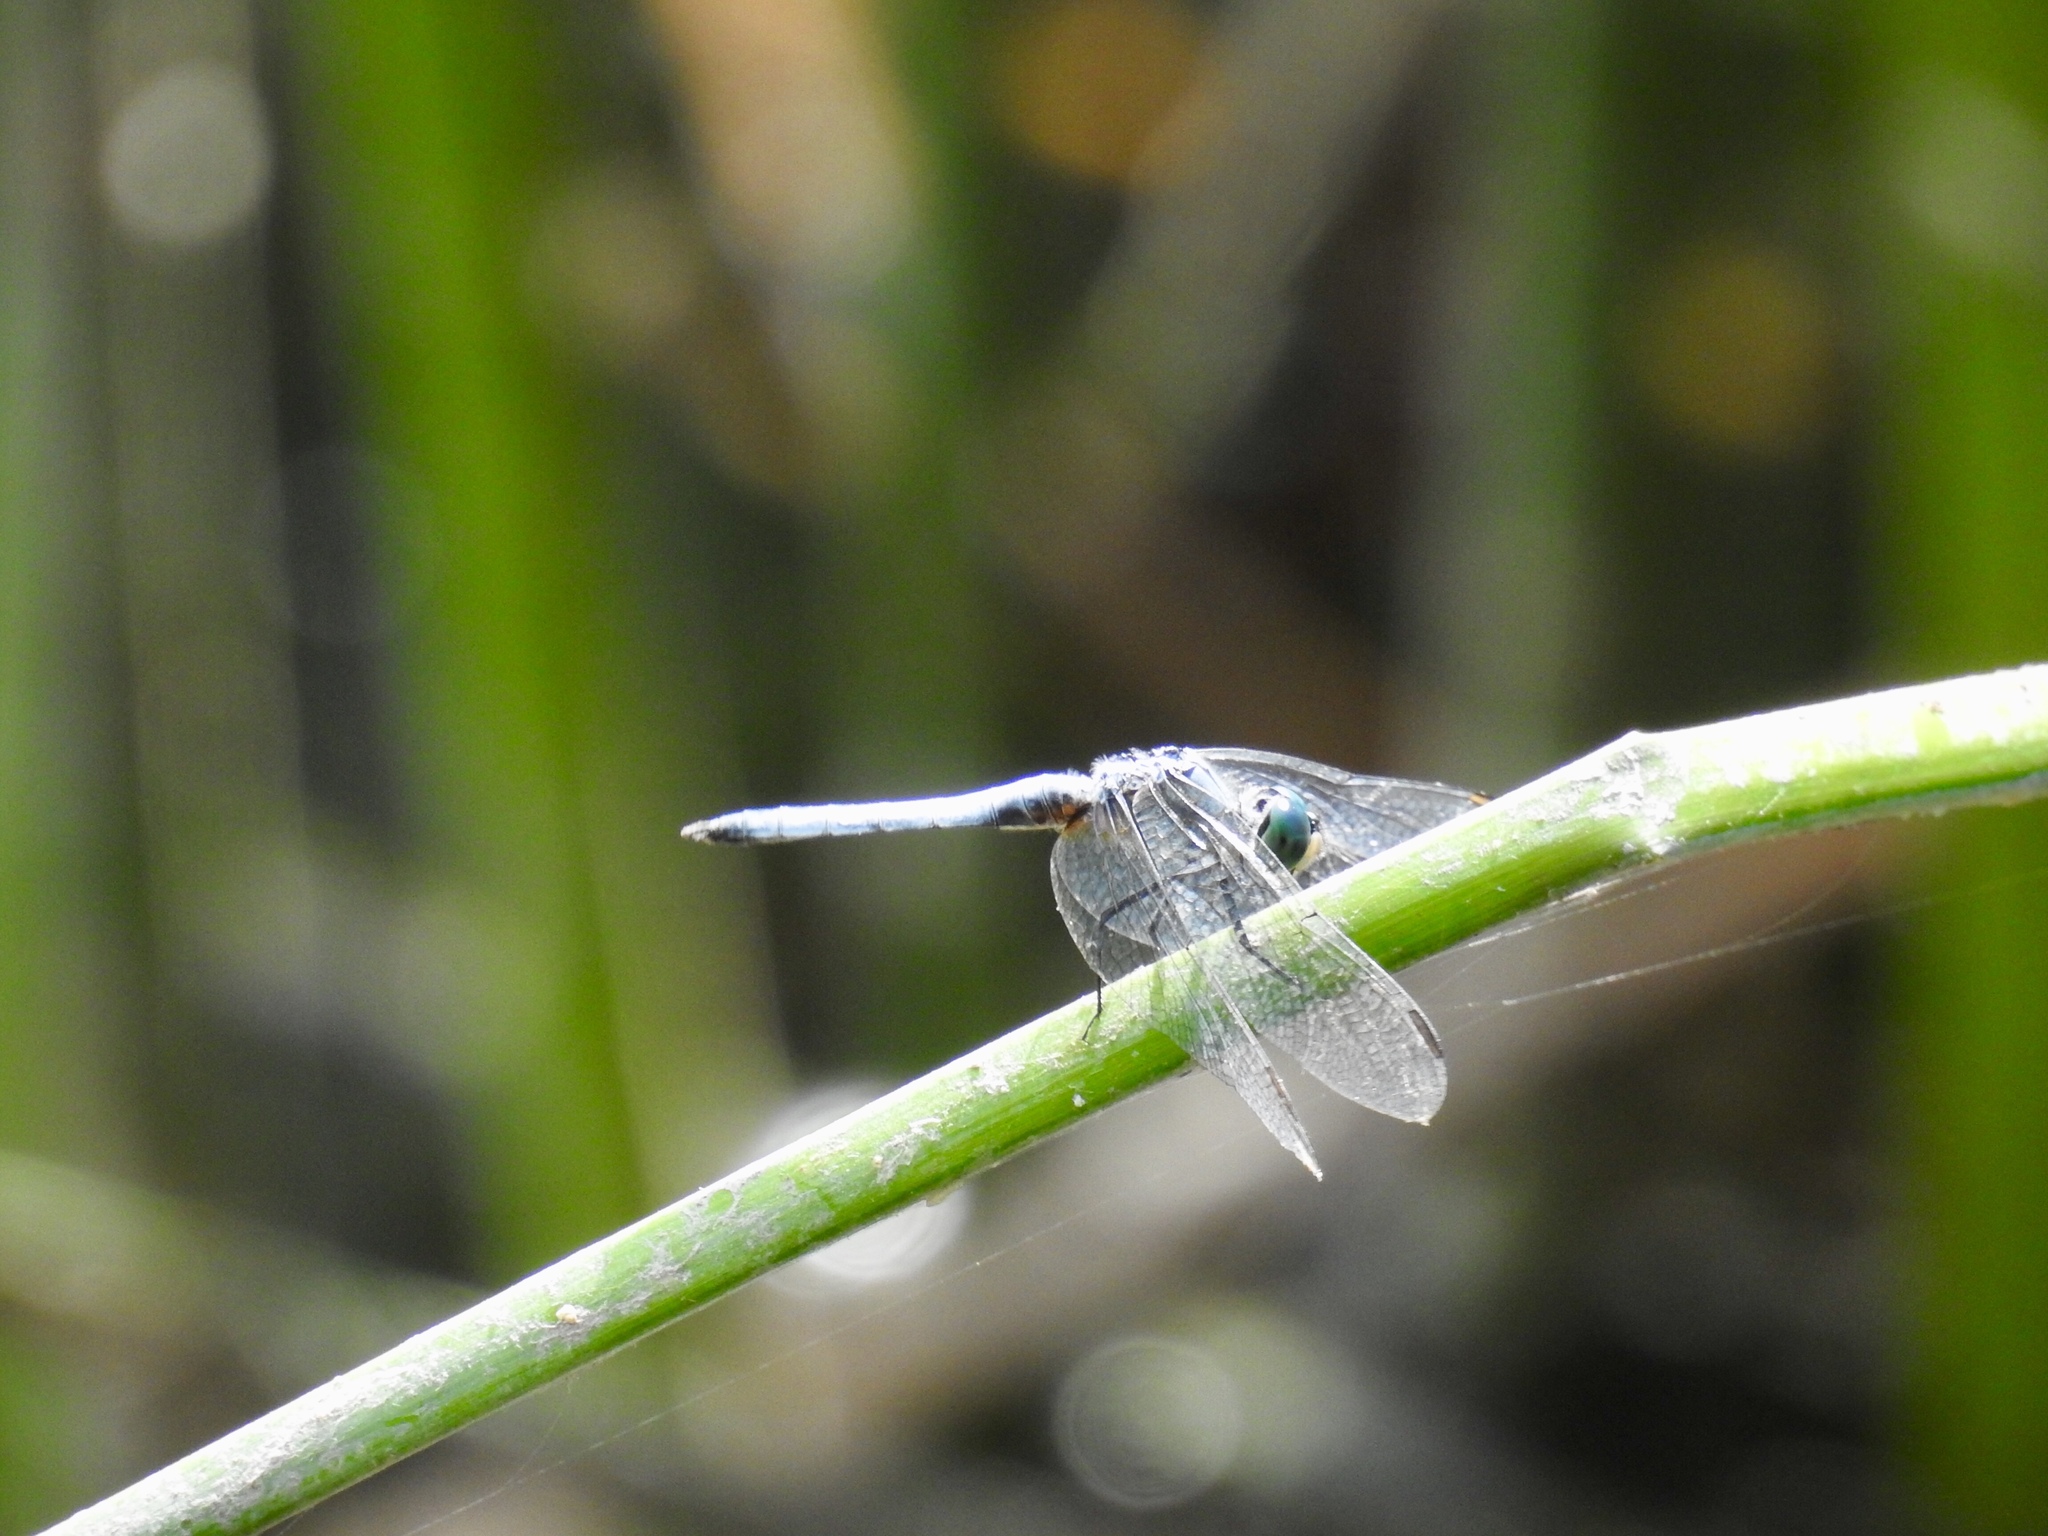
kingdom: Animalia
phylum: Arthropoda
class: Insecta
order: Odonata
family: Libellulidae
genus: Pachydiplax
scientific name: Pachydiplax longipennis
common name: Blue dasher
